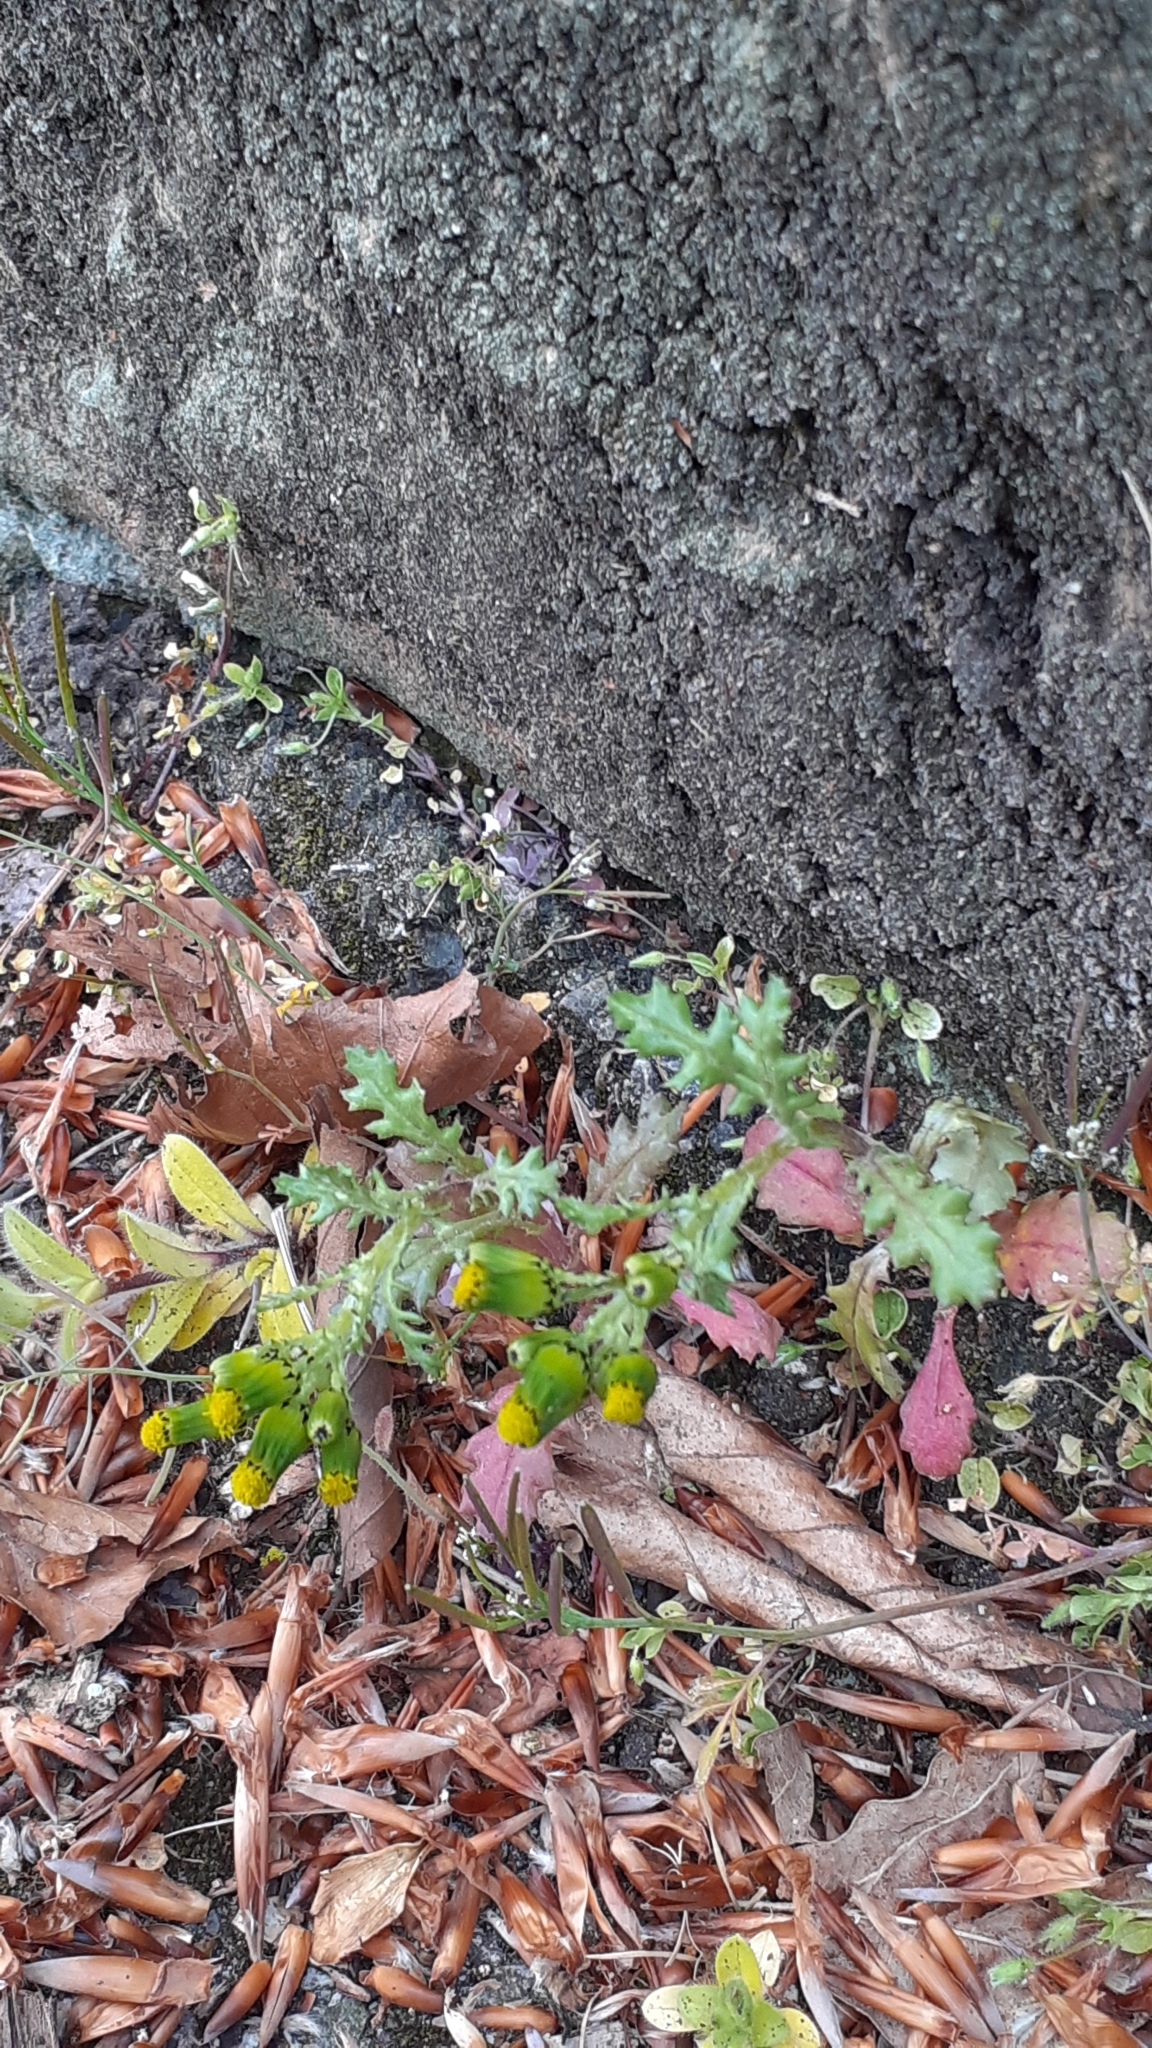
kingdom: Plantae
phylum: Tracheophyta
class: Magnoliopsida
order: Asterales
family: Asteraceae
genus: Senecio
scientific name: Senecio vulgaris
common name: Old-man-in-the-spring
